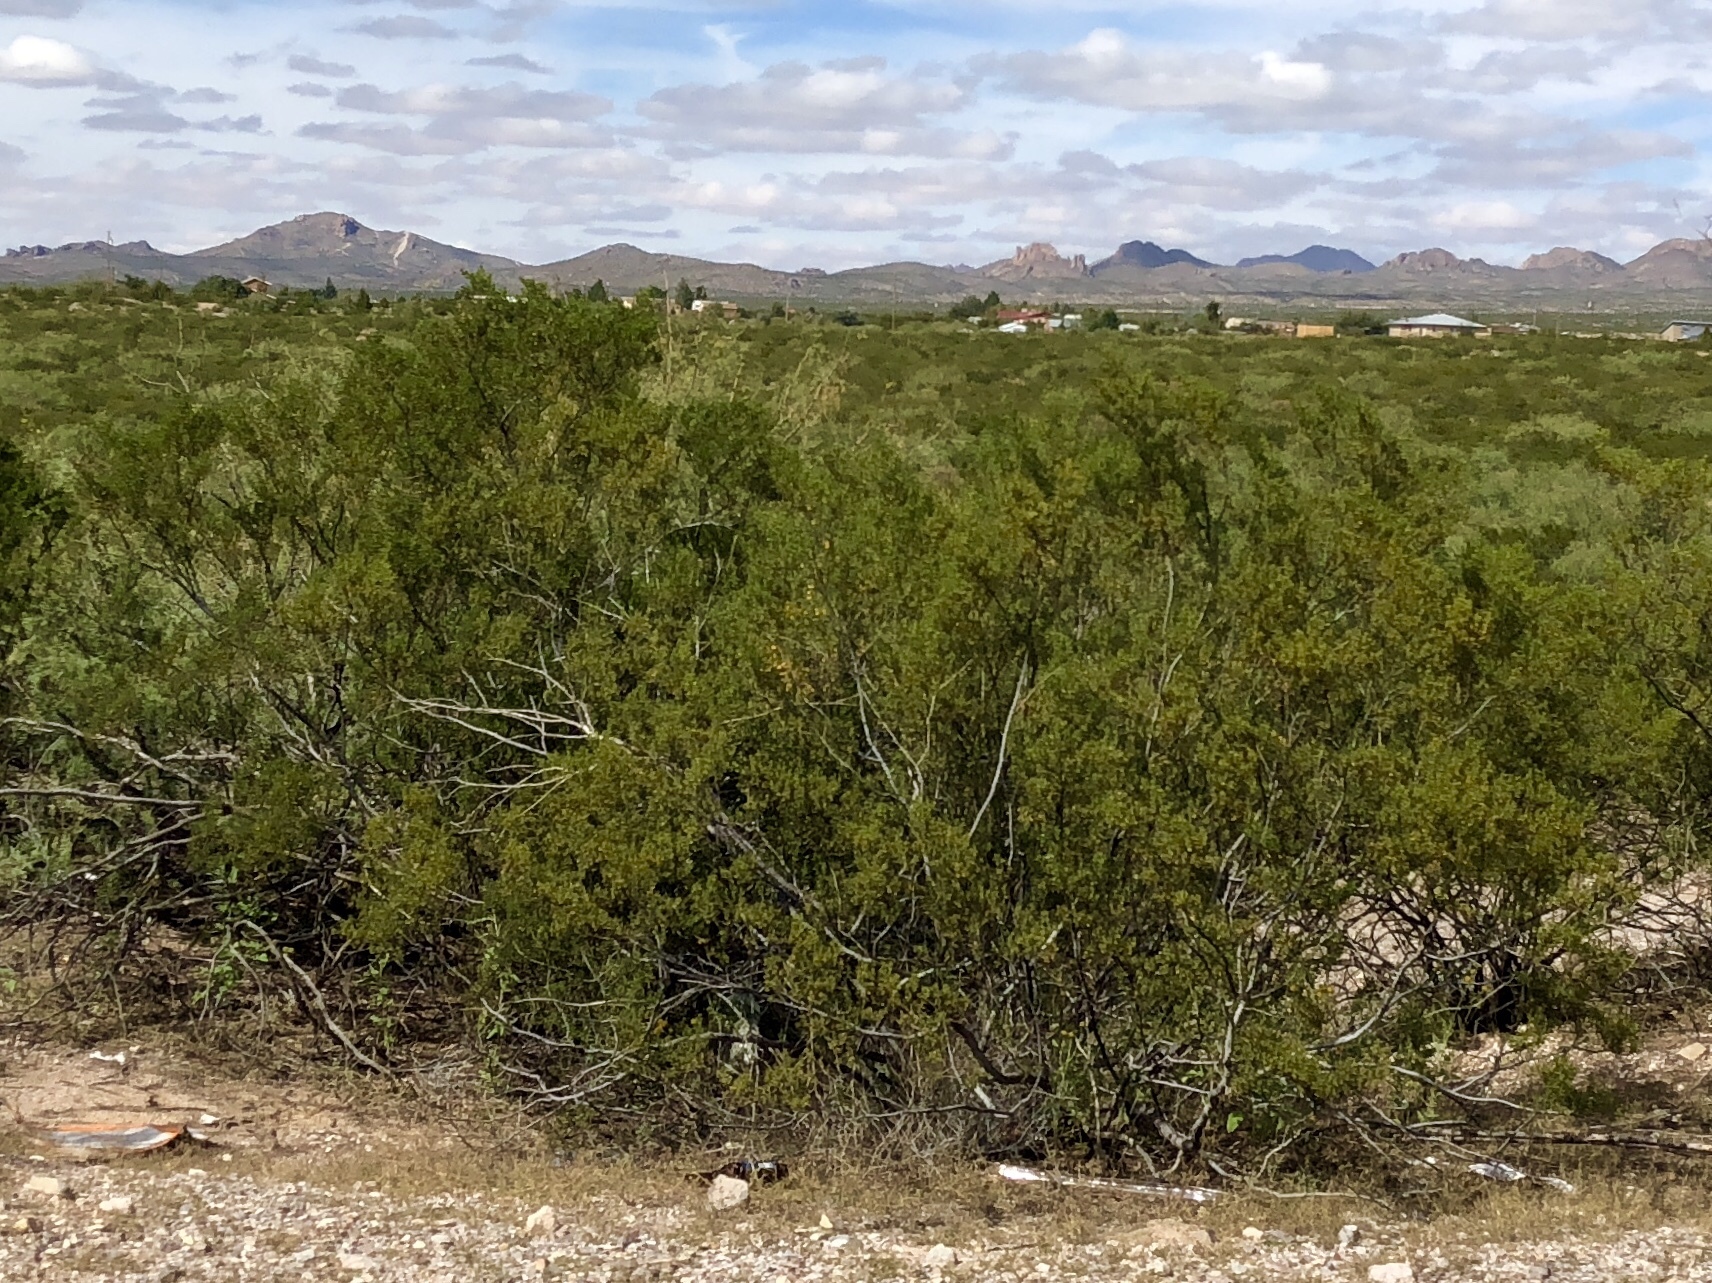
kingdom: Plantae
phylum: Tracheophyta
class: Magnoliopsida
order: Zygophyllales
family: Zygophyllaceae
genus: Larrea
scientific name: Larrea tridentata
